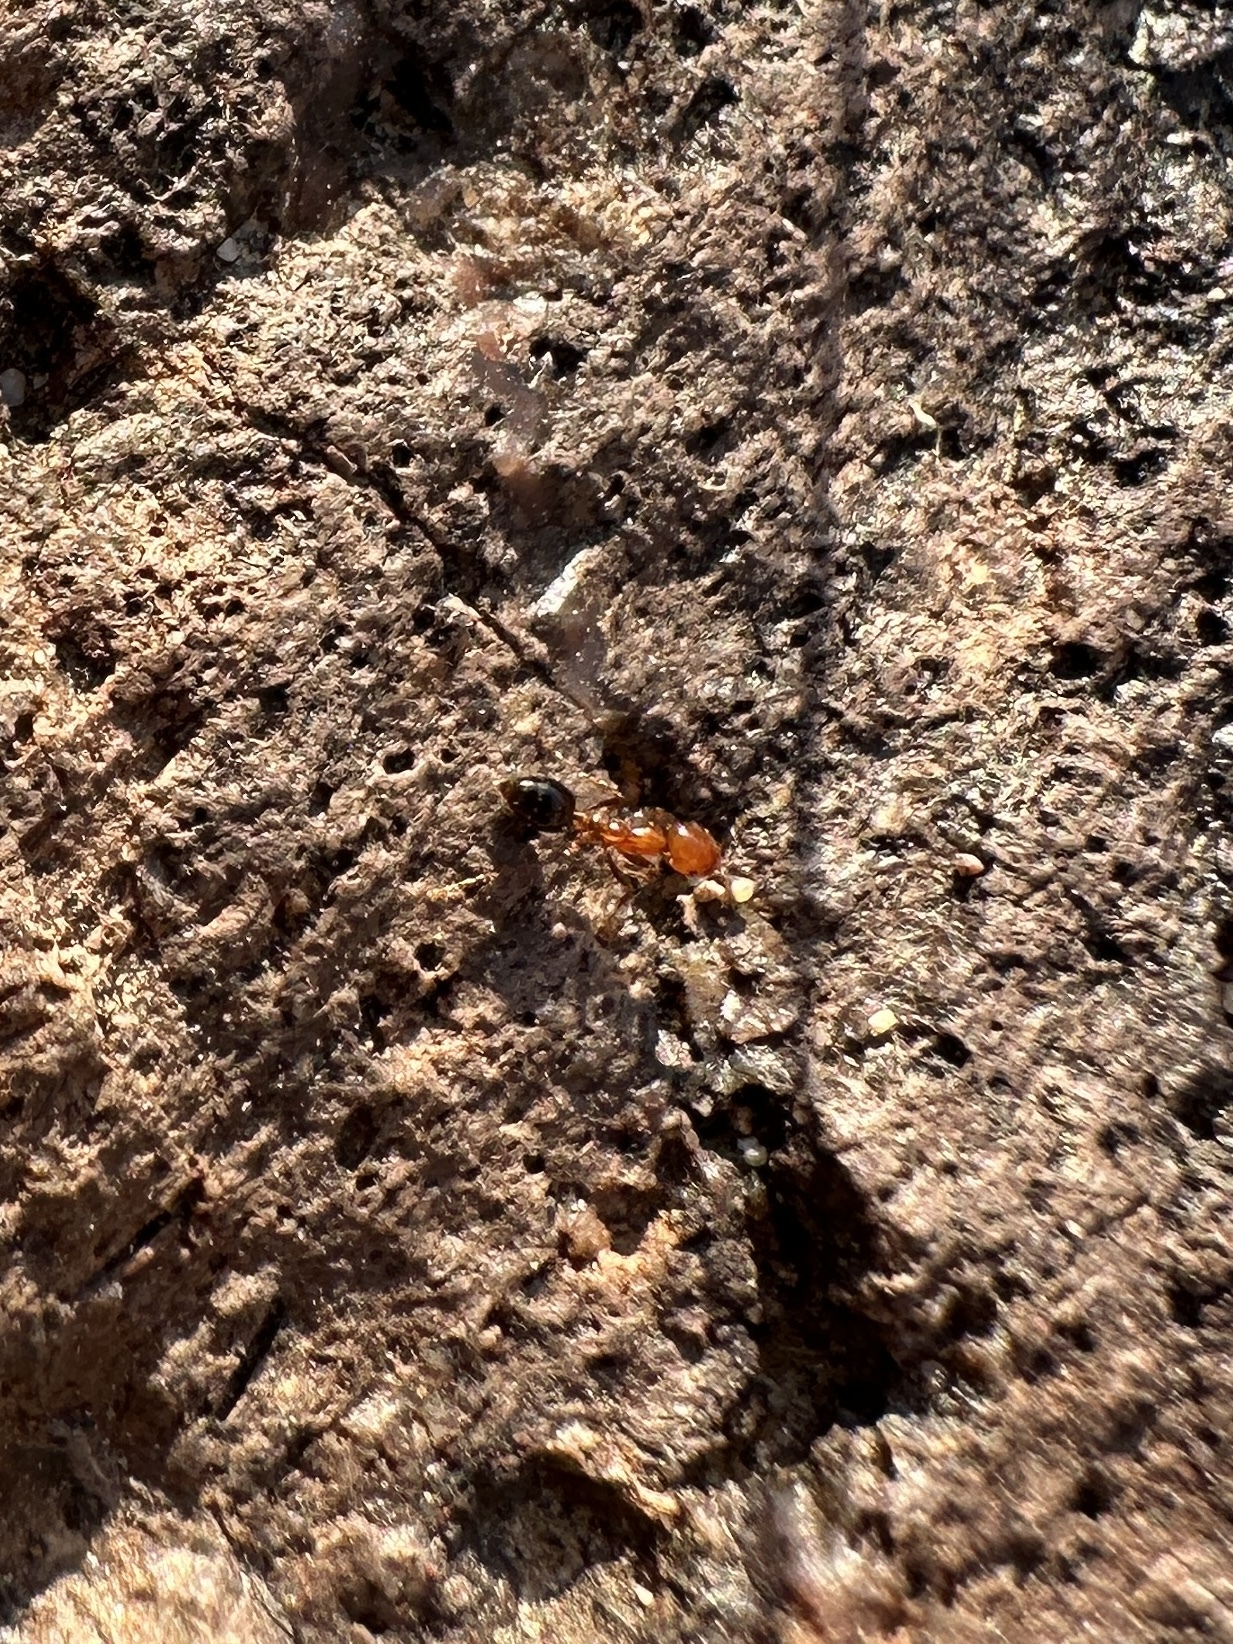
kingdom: Animalia
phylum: Arthropoda
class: Insecta
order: Hymenoptera
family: Formicidae
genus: Solenopsis
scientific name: Solenopsis xyloni
